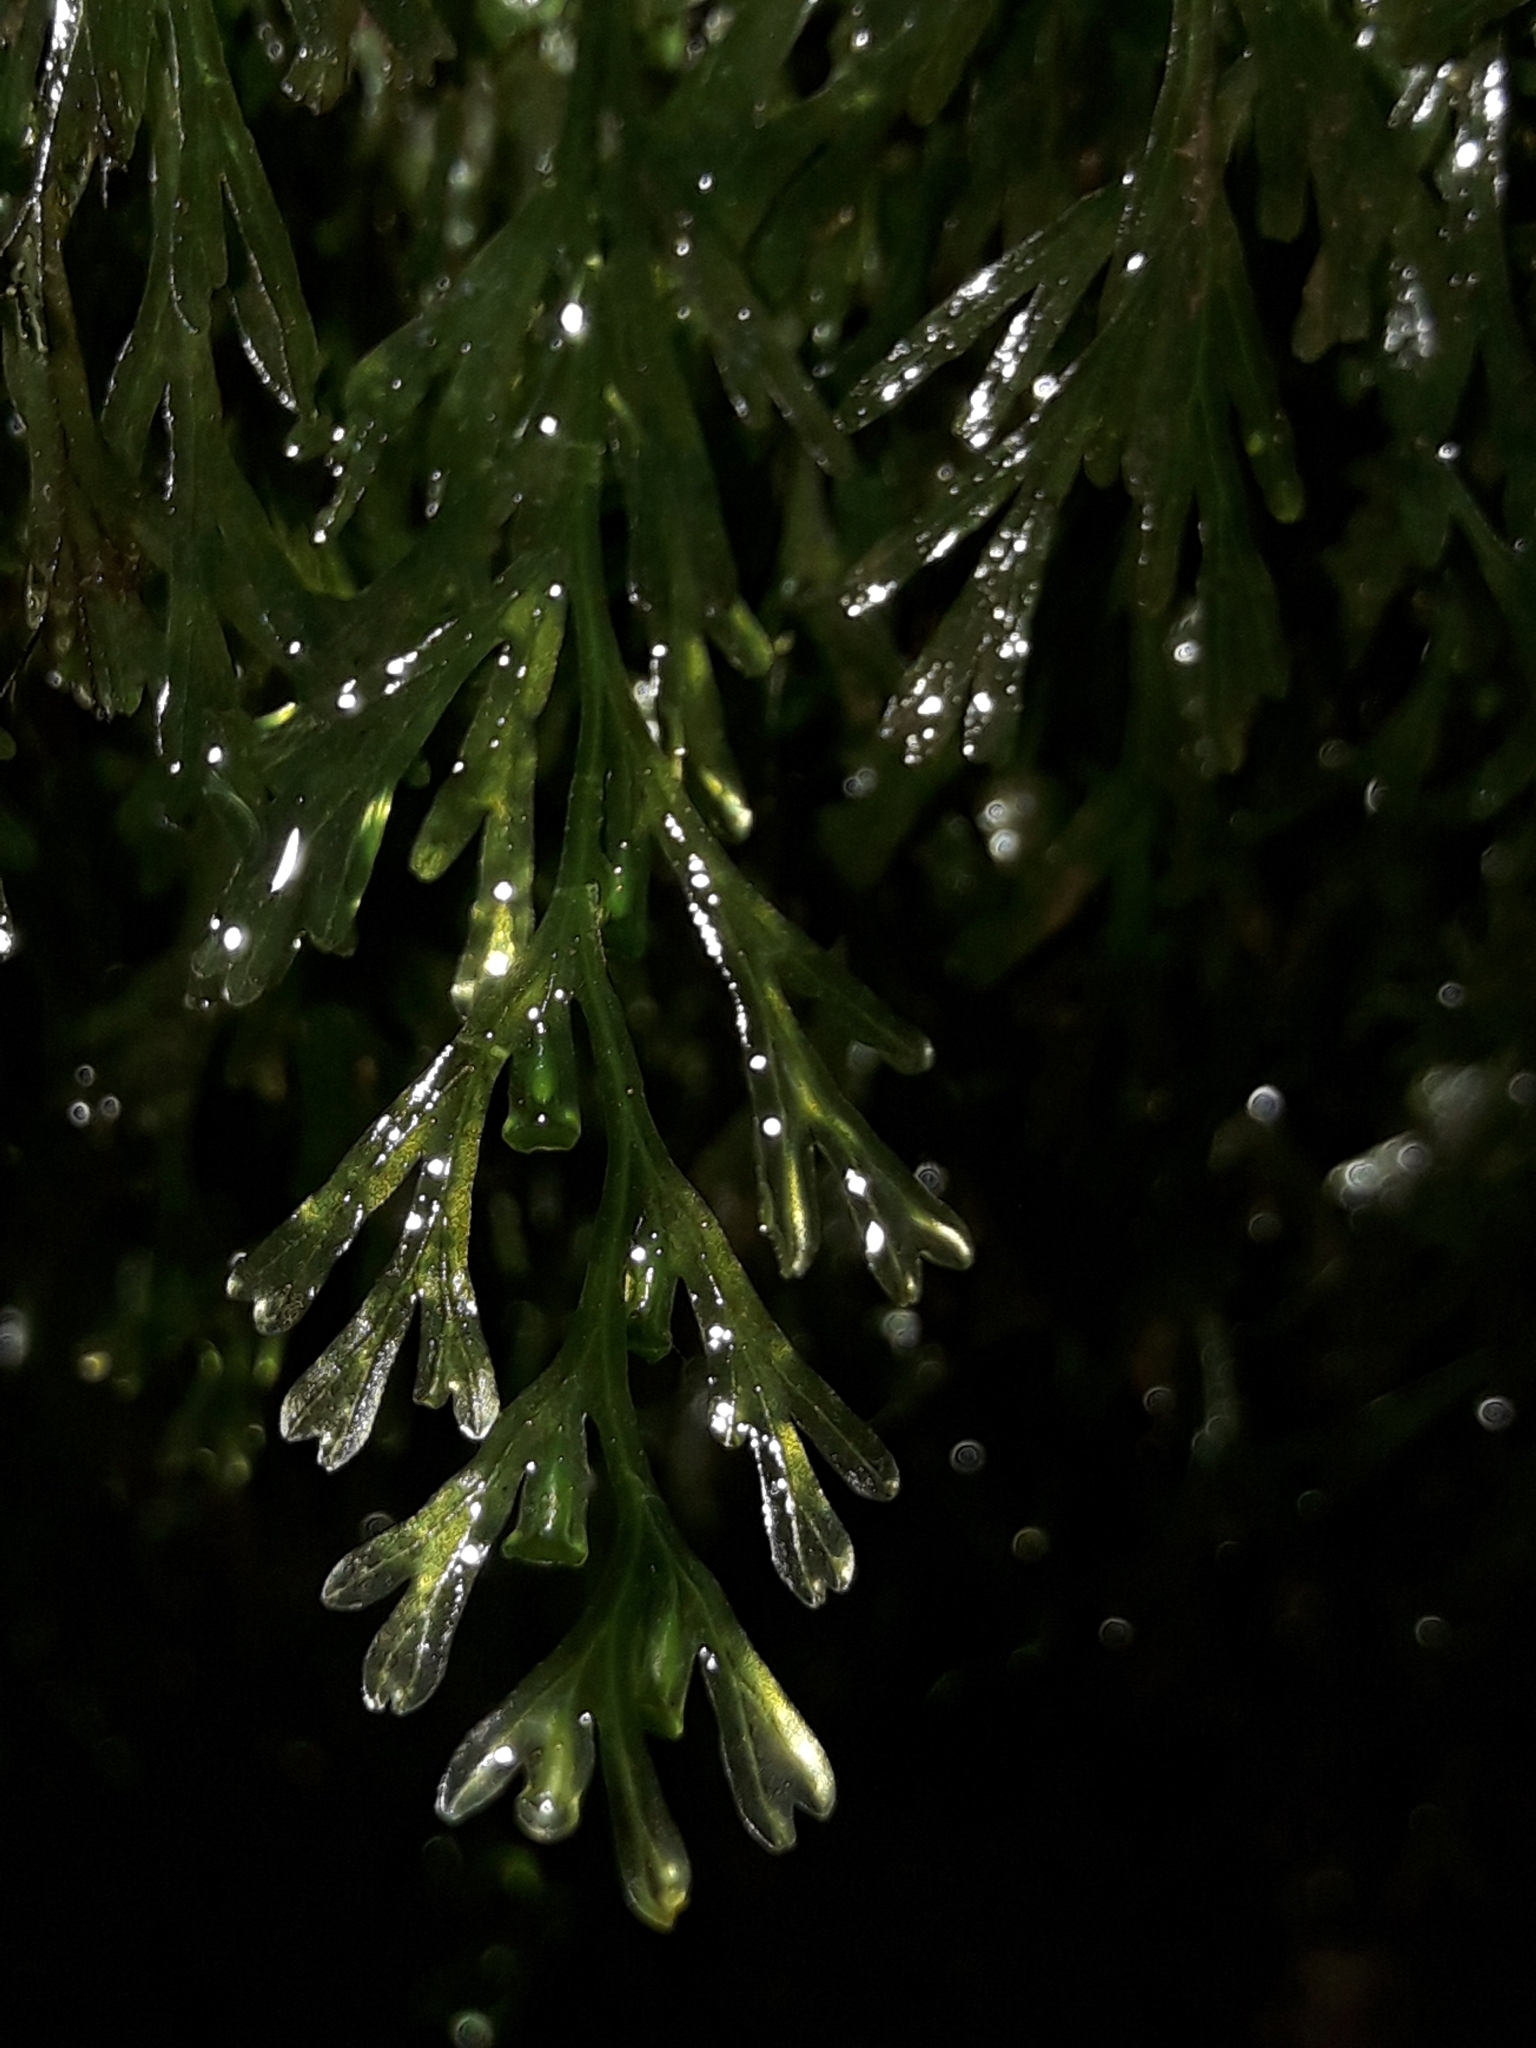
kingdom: Plantae
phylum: Tracheophyta
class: Polypodiopsida
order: Hymenophyllales
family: Hymenophyllaceae
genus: Polyphlebium
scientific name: Polyphlebium endlicherianum
